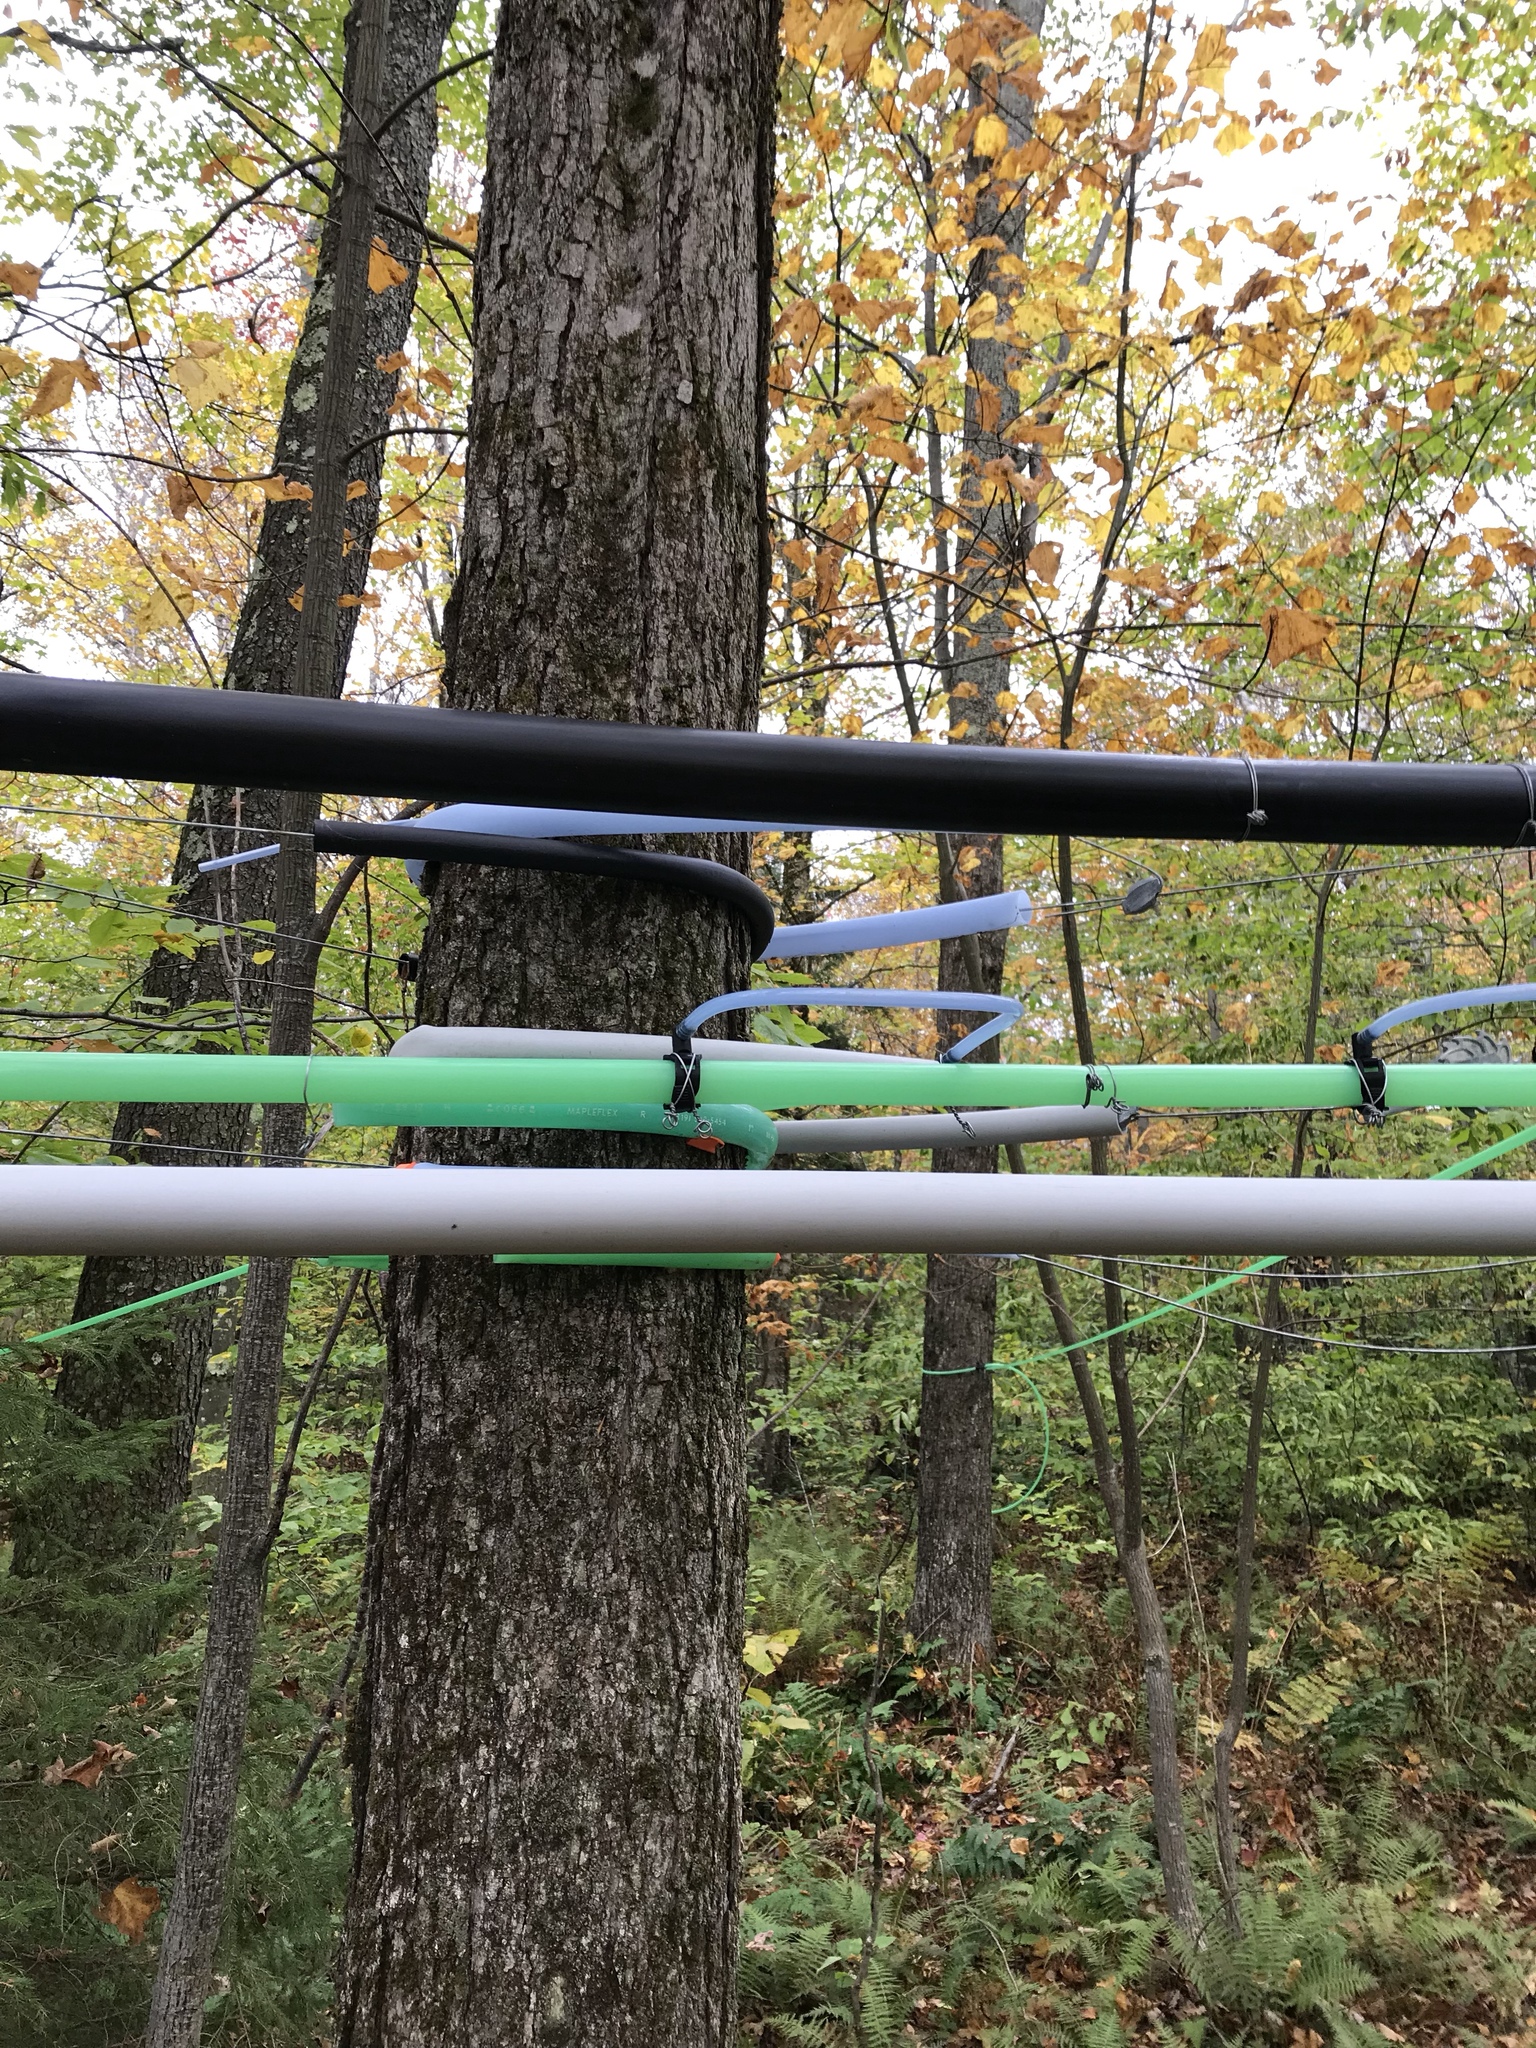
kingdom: Plantae
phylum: Tracheophyta
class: Magnoliopsida
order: Sapindales
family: Sapindaceae
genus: Acer
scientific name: Acer saccharum
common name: Sugar maple
